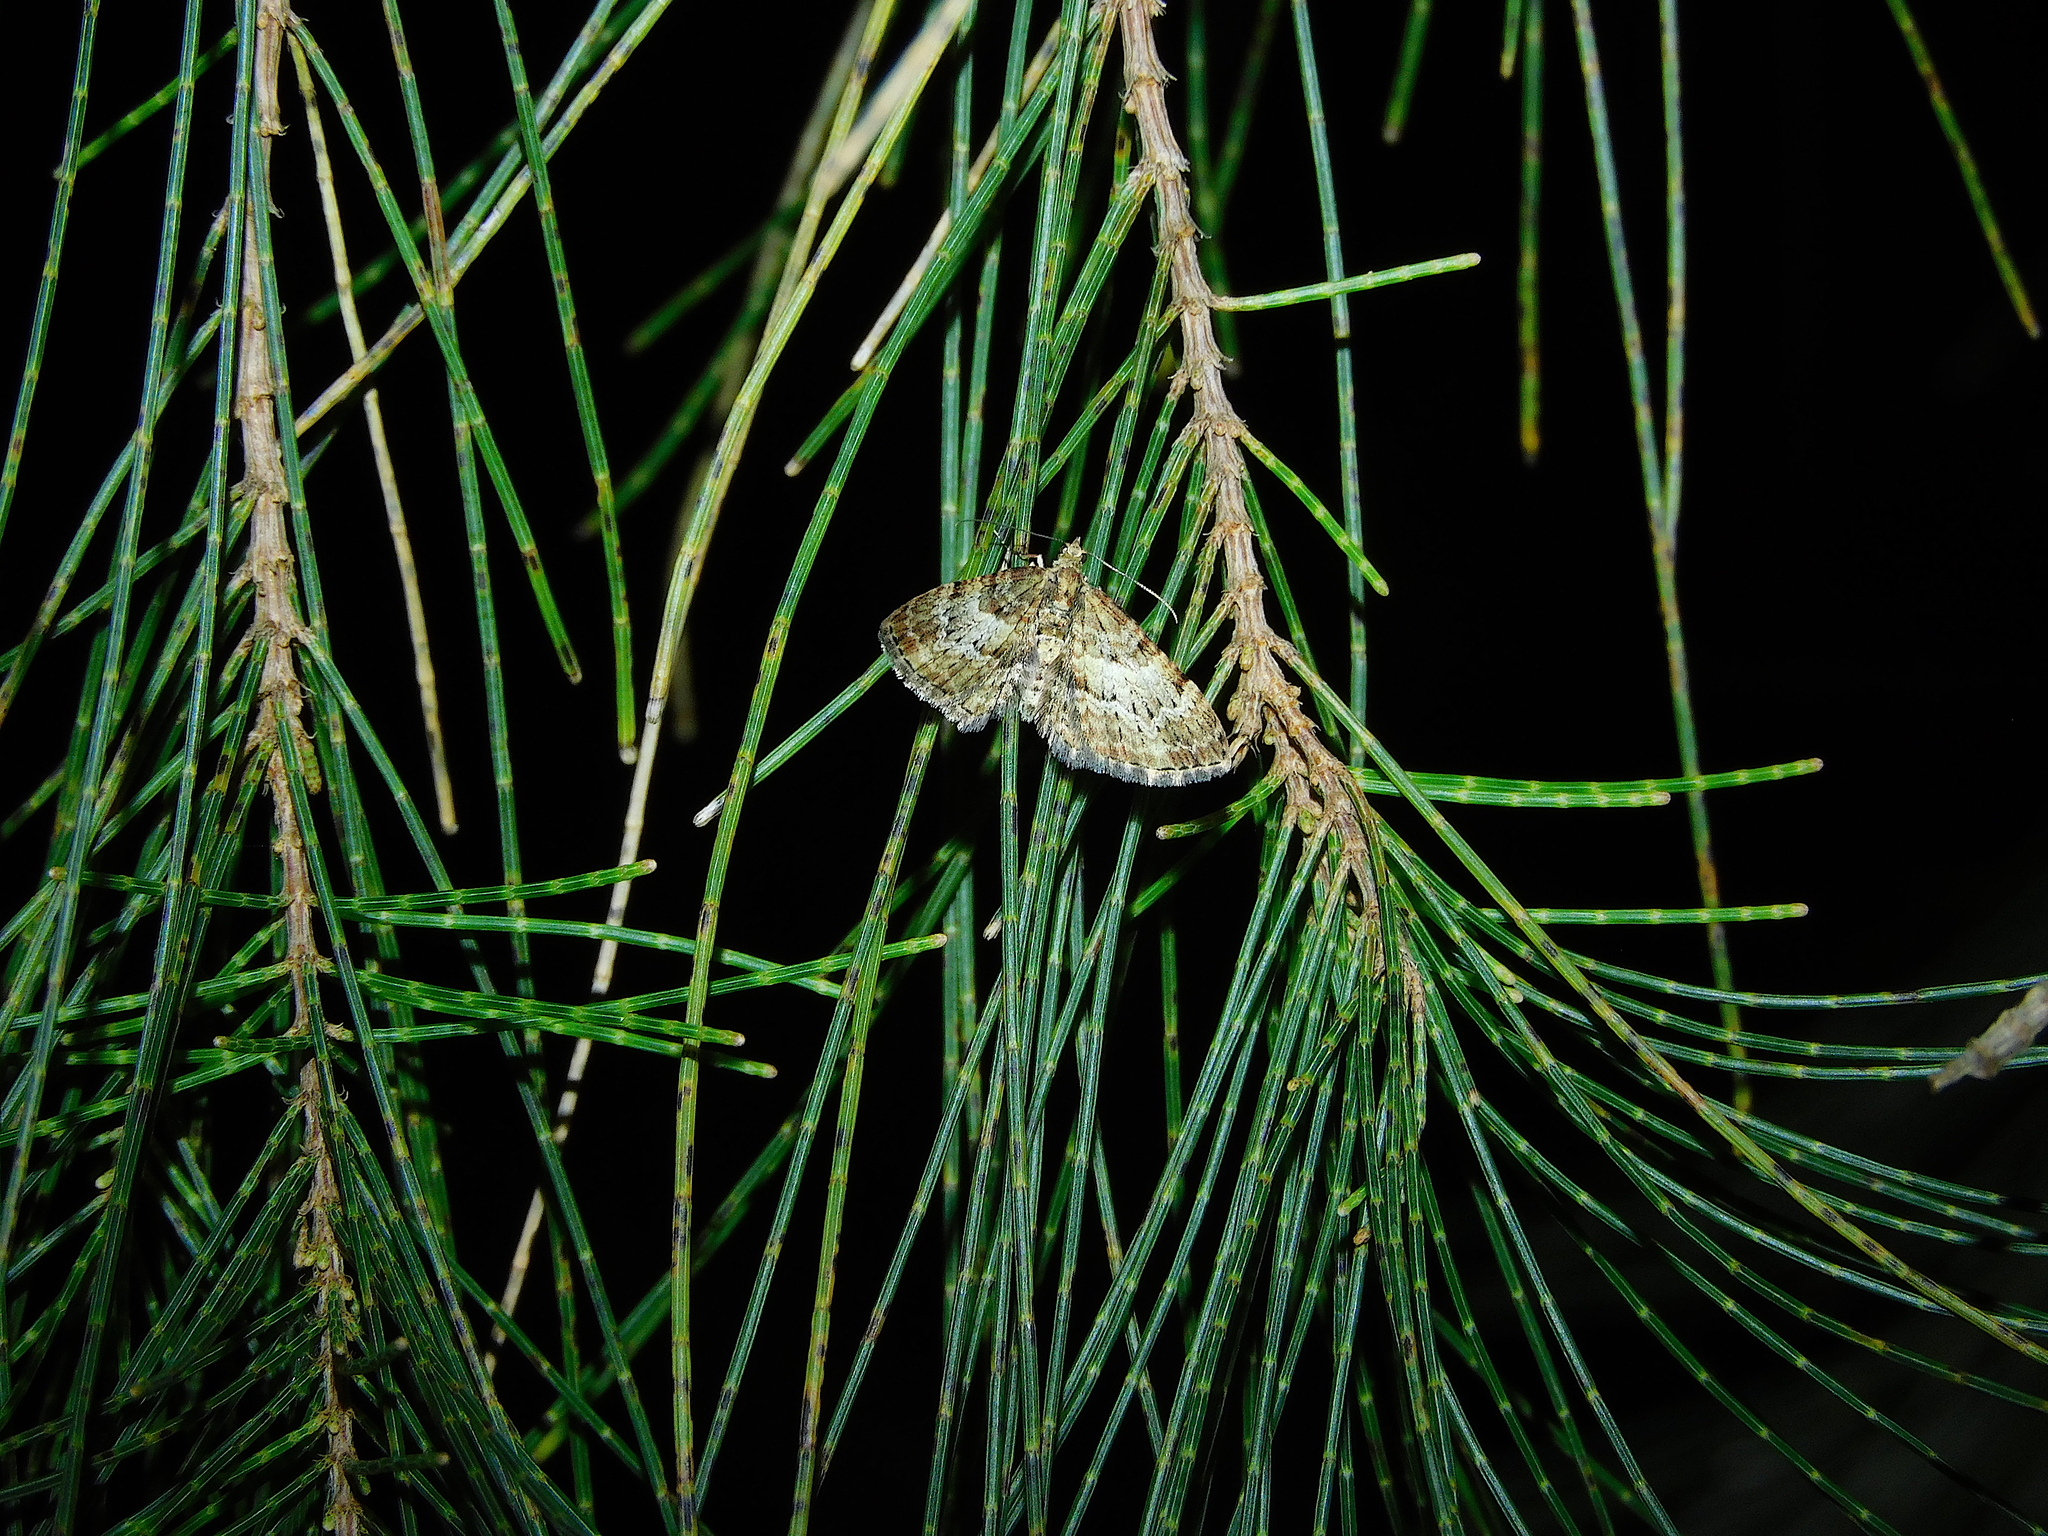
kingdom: Animalia
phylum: Arthropoda
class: Insecta
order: Lepidoptera
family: Geometridae
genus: Chloroclystis
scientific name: Chloroclystis approximata
